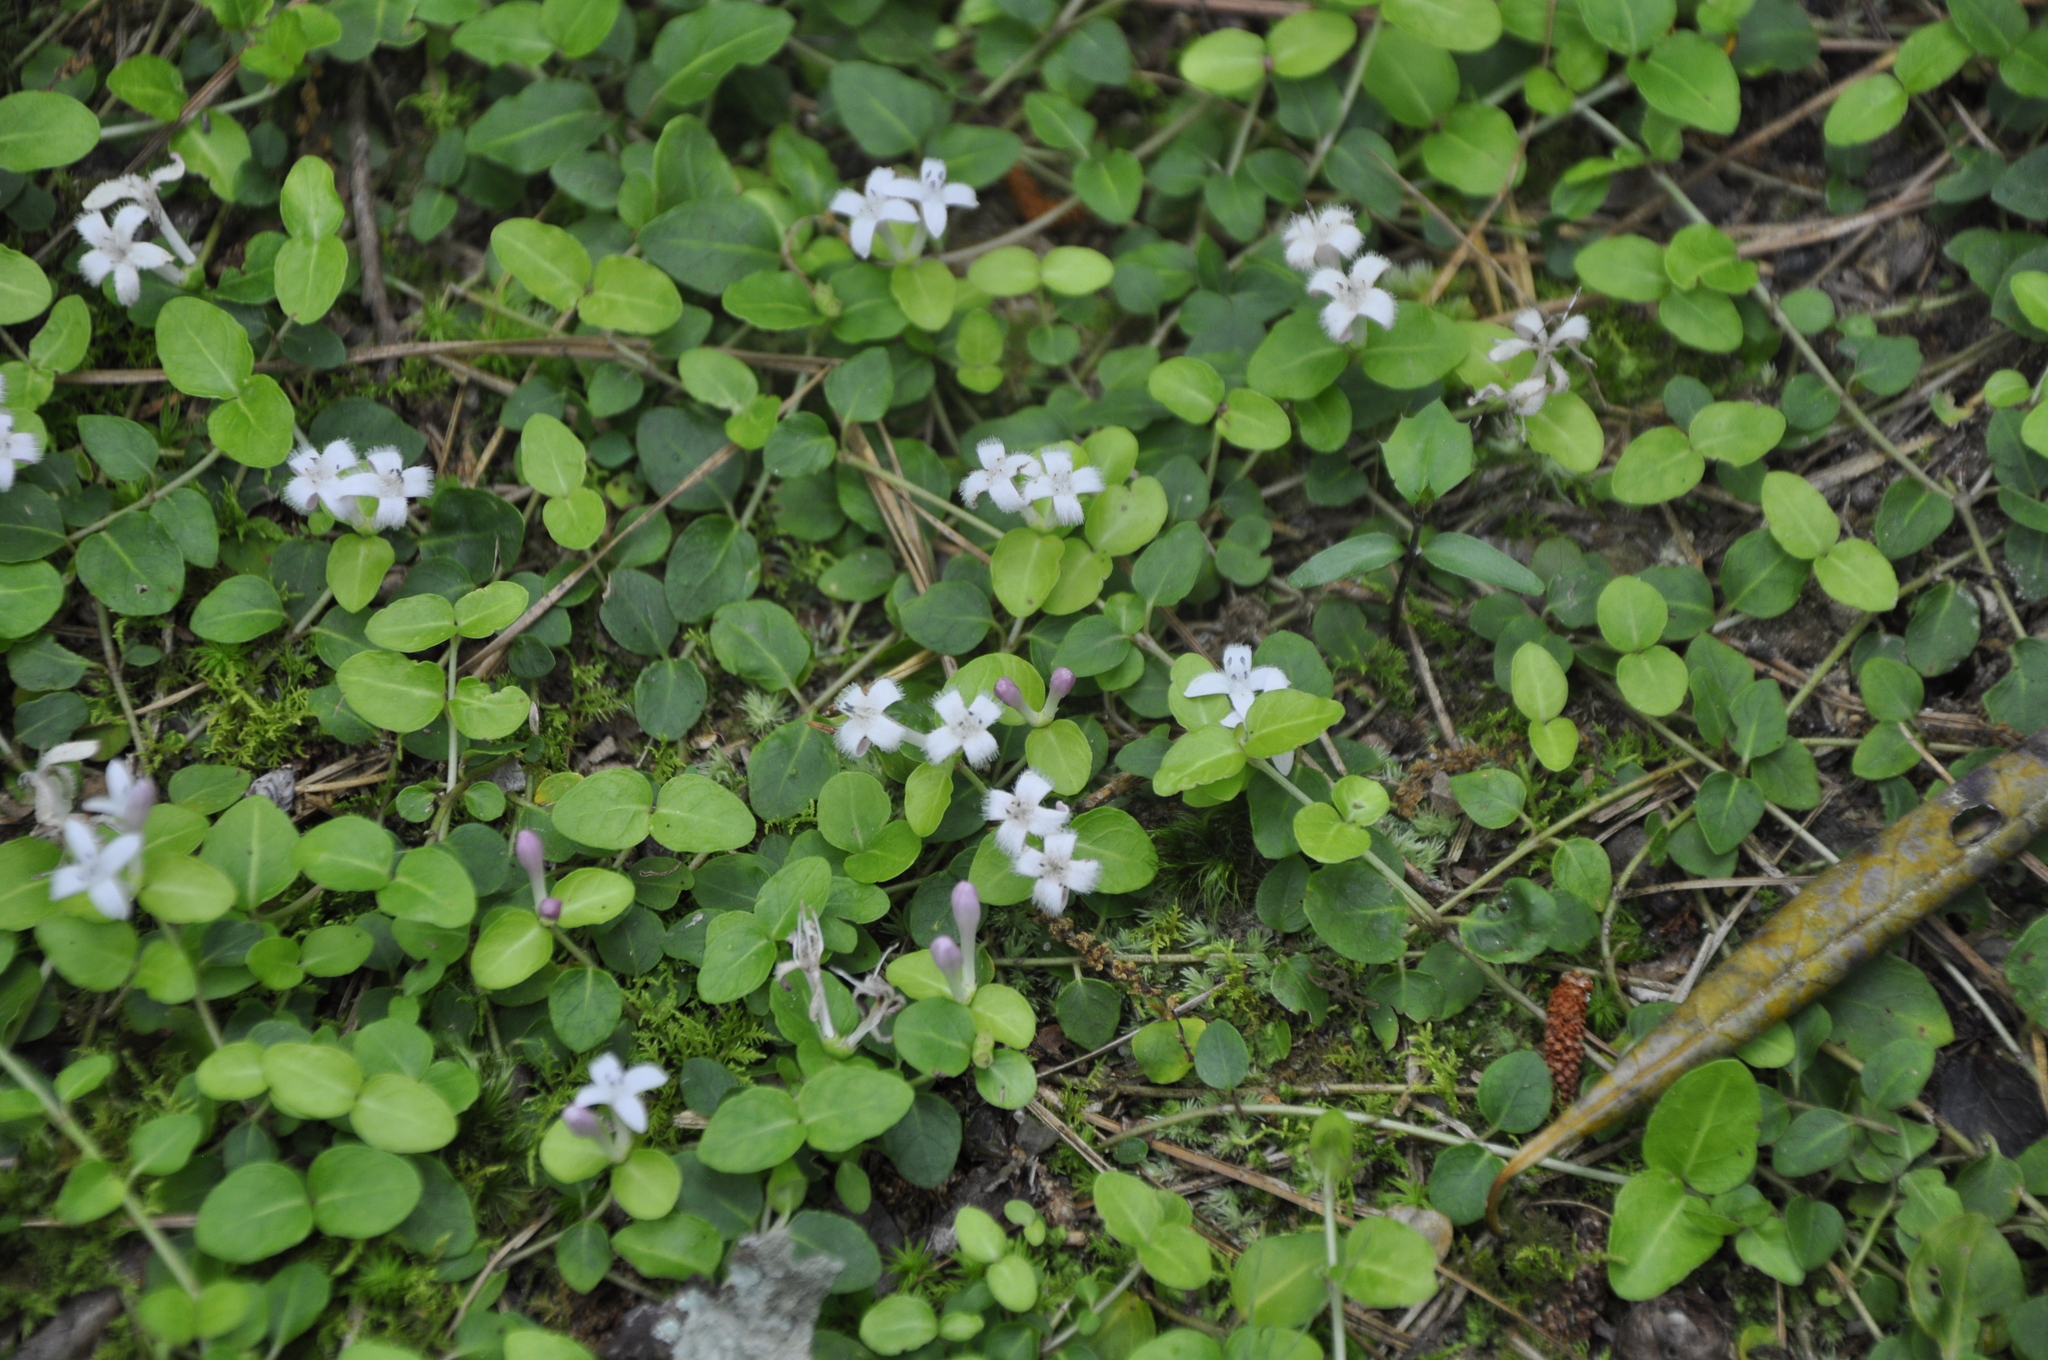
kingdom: Plantae
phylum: Tracheophyta
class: Magnoliopsida
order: Gentianales
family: Rubiaceae
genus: Mitchella
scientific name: Mitchella repens
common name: Partridge-berry
